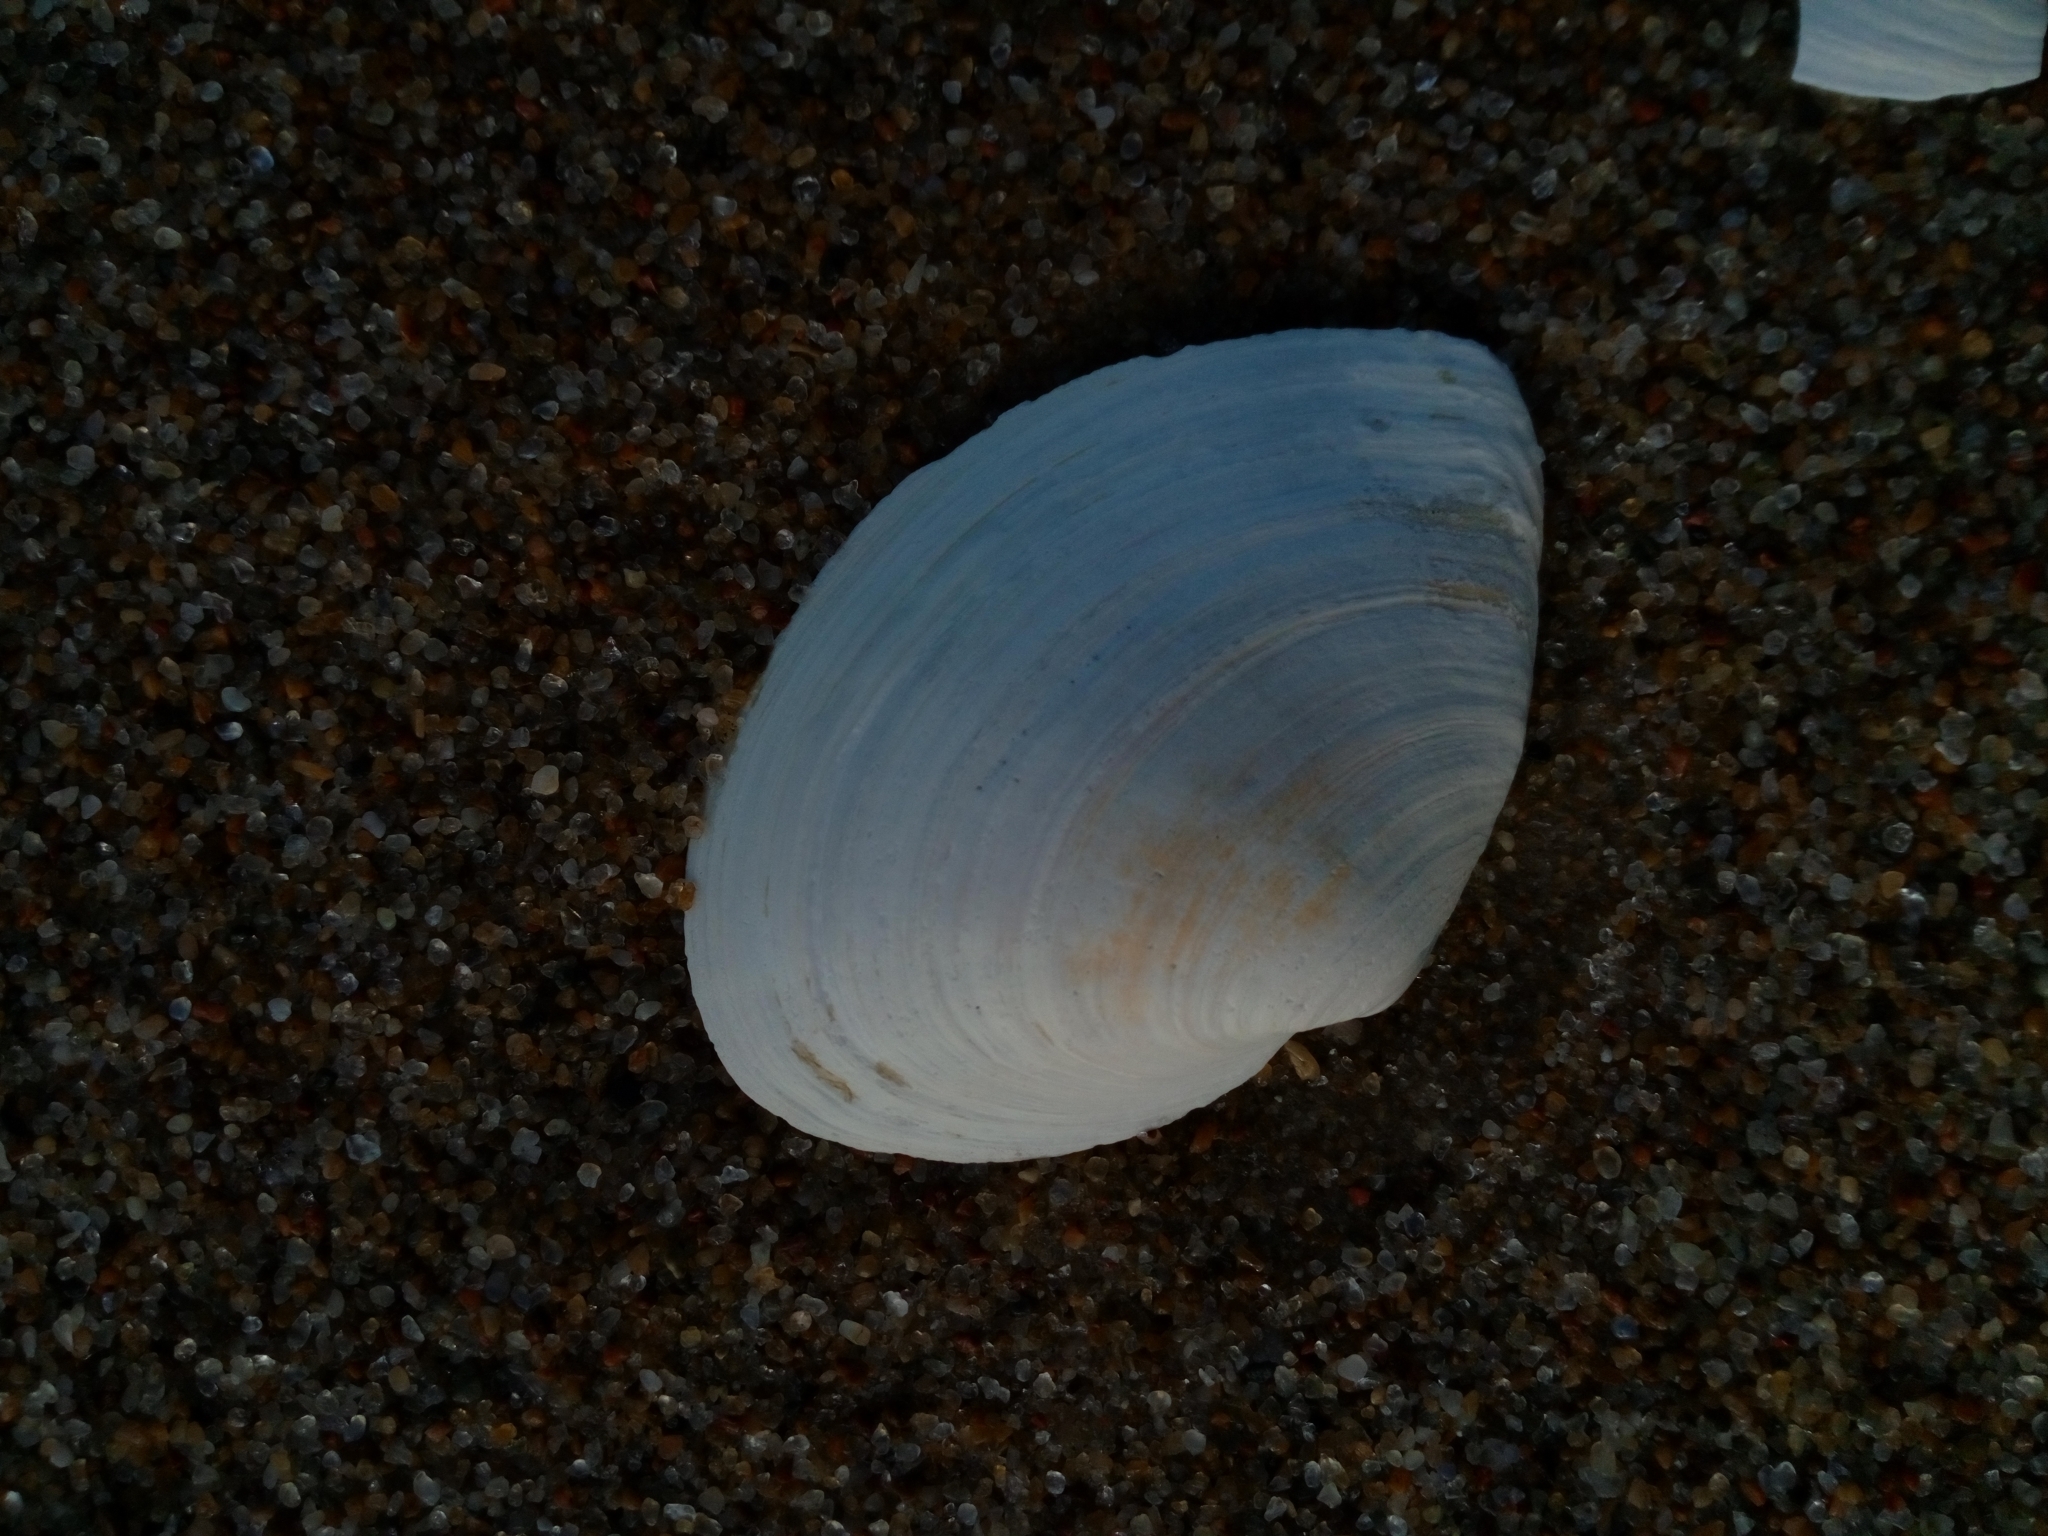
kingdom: Animalia
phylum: Mollusca
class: Bivalvia
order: Myida
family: Myidae
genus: Mya
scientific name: Mya arenaria
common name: Soft-shelled clam
